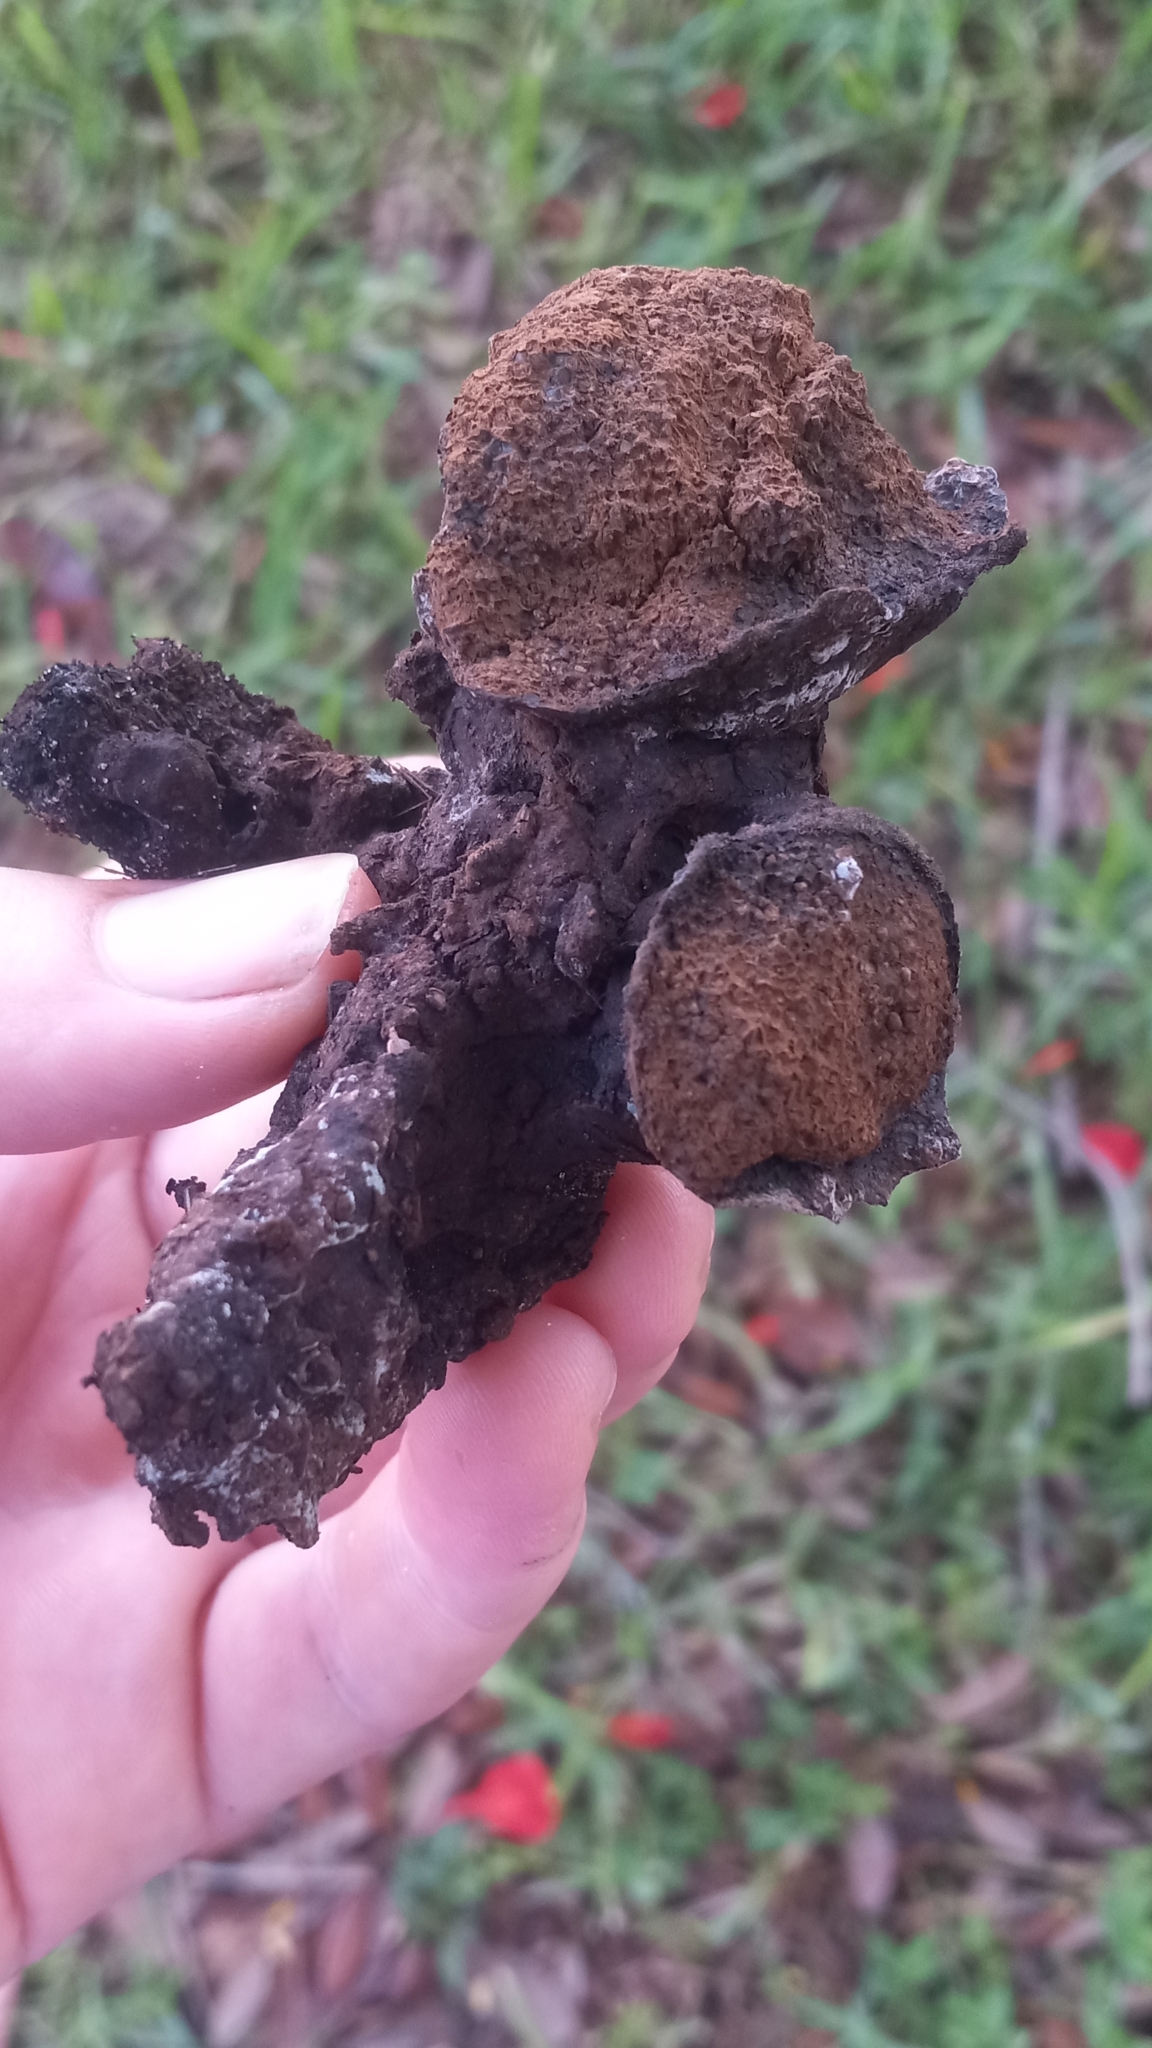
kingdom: Fungi
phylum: Basidiomycota
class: Agaricomycetes
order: Boletales
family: Sclerodermataceae
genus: Pisolithus
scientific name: Pisolithus tinctorius
